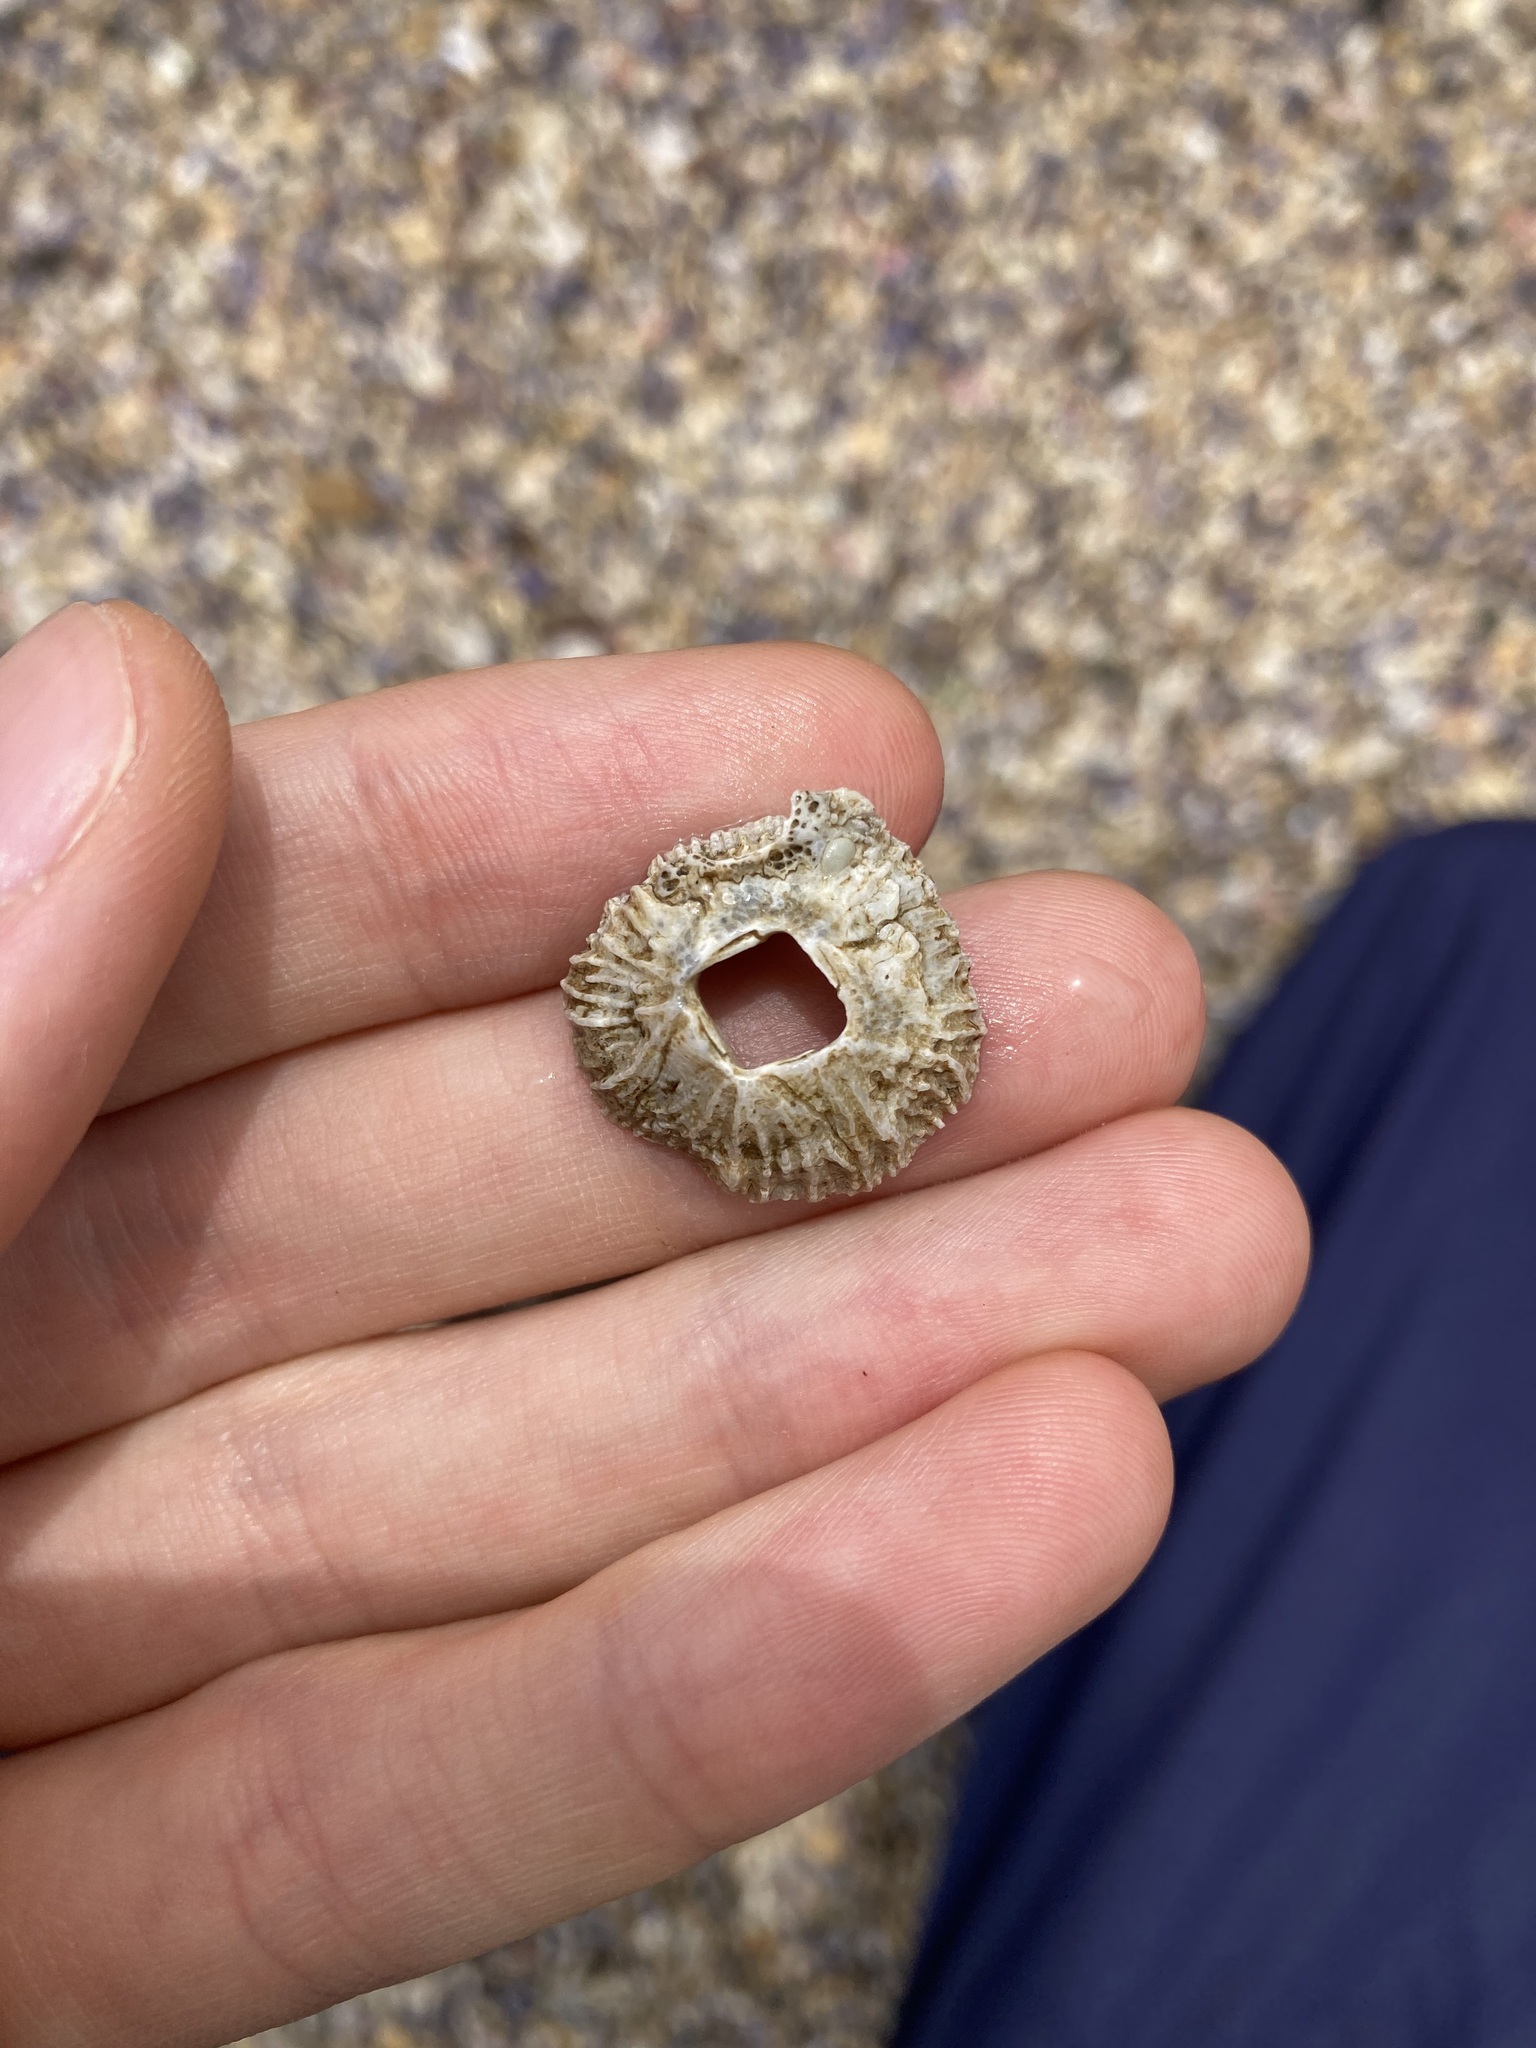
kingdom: Animalia
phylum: Arthropoda
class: Maxillopoda
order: Sessilia
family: Tetraclitidae
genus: Tetraclitella
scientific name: Tetraclitella purpurascens
